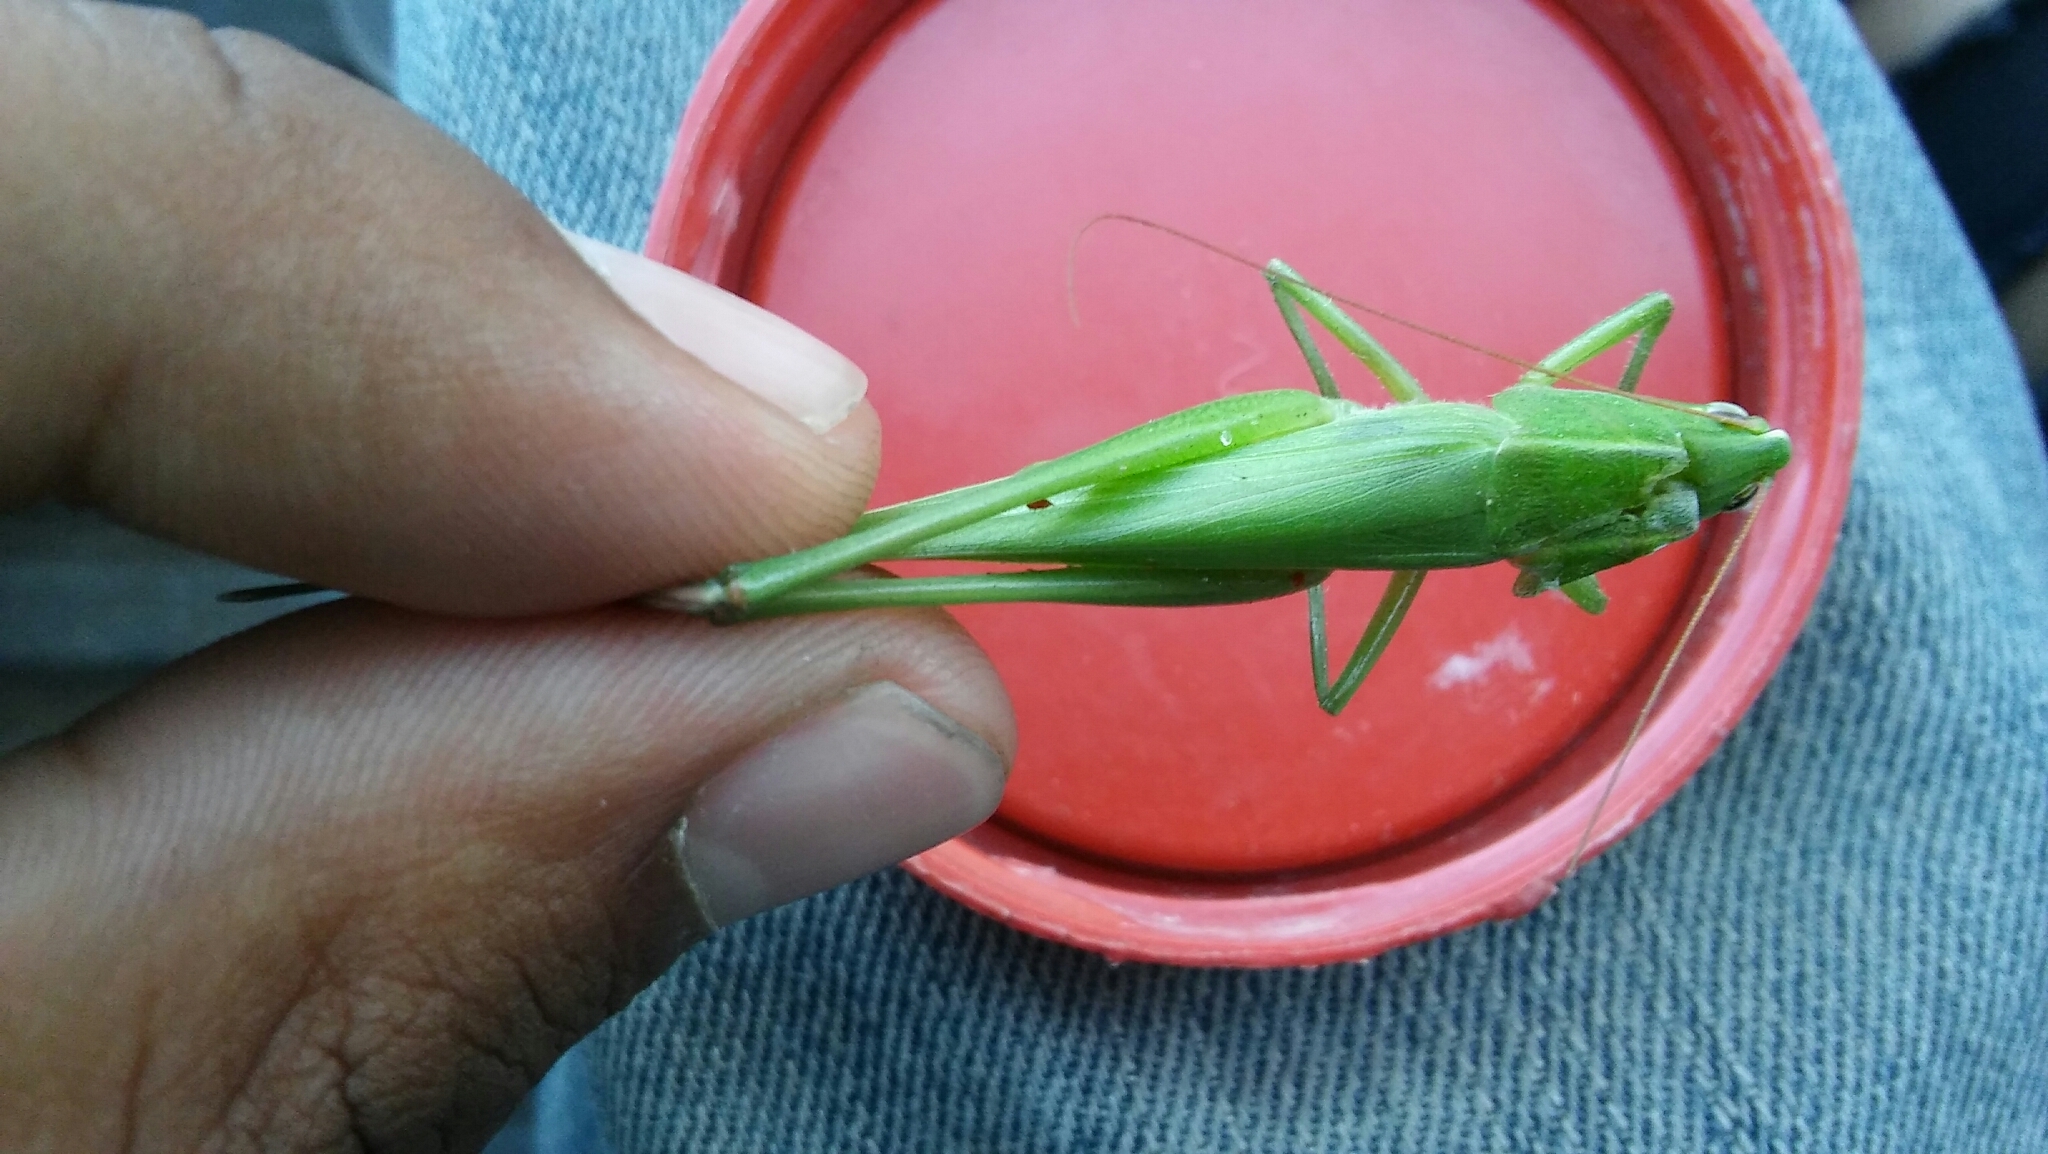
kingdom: Animalia
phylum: Arthropoda
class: Insecta
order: Orthoptera
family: Tettigoniidae
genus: Neoconocephalus
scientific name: Neoconocephalus viridis
